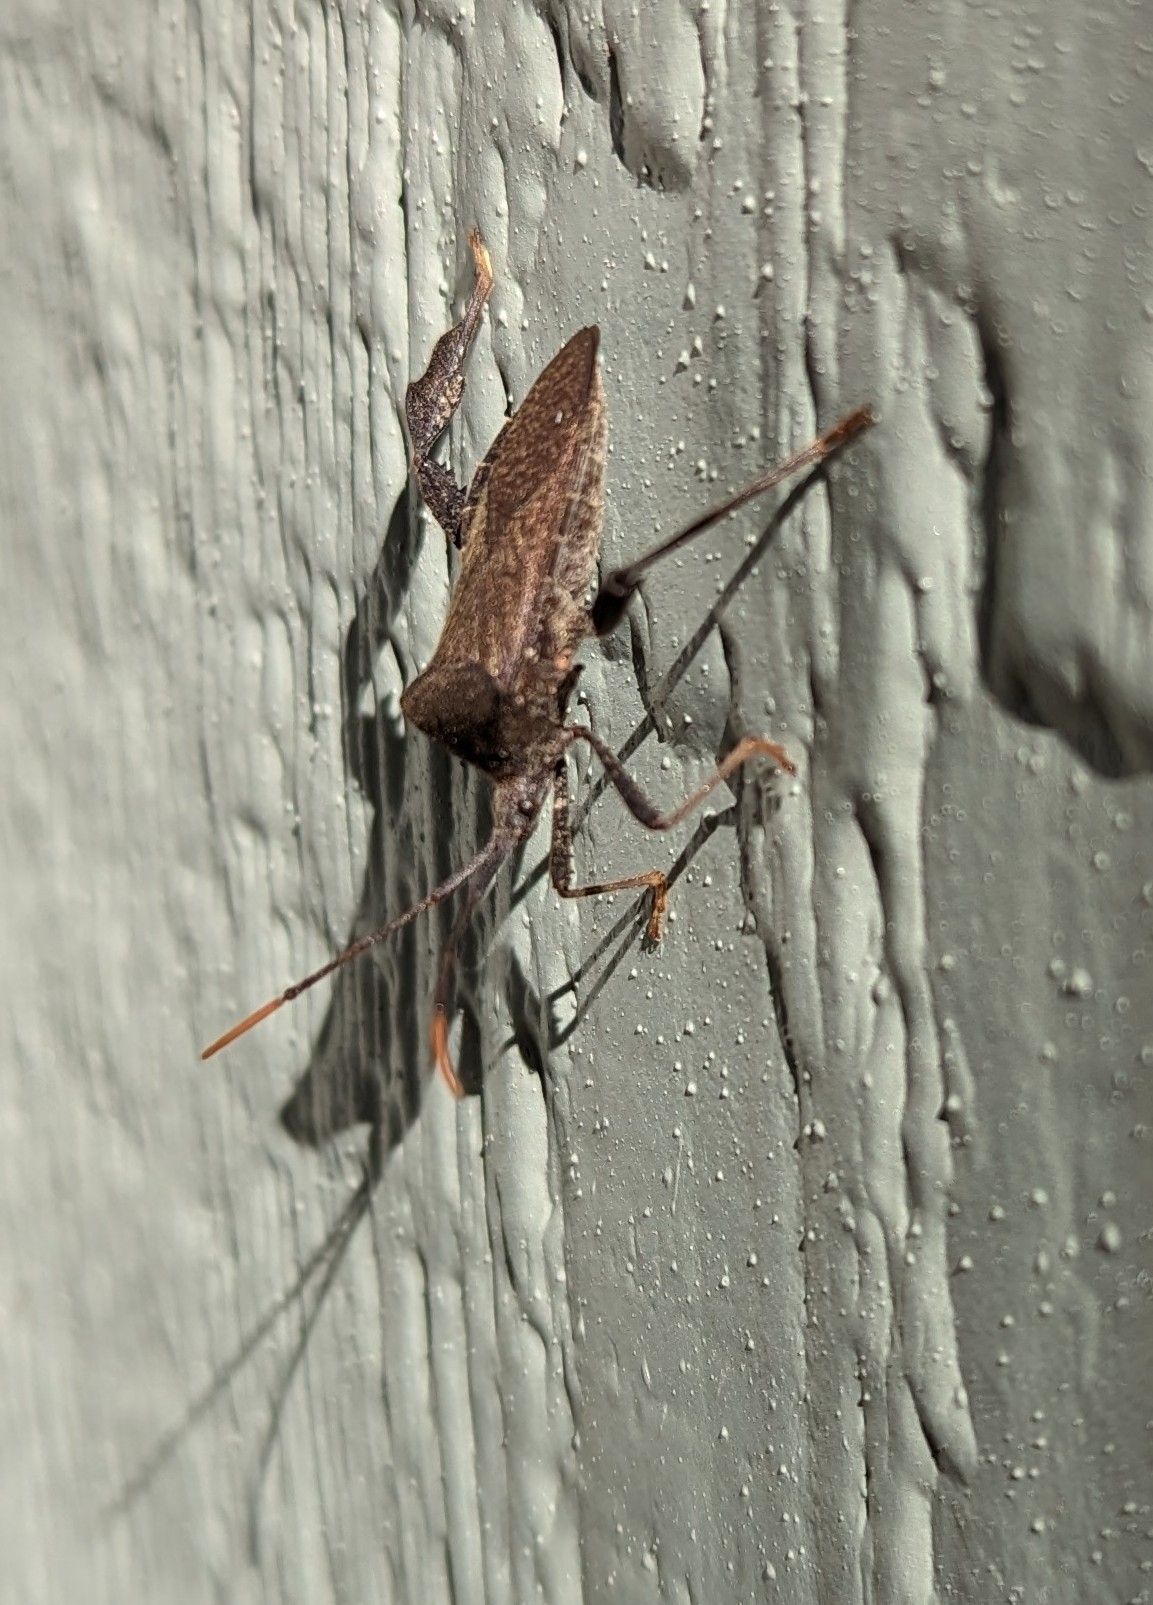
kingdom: Animalia
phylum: Arthropoda
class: Insecta
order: Hemiptera
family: Coreidae
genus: Acanthocephala
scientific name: Acanthocephala terminalis
